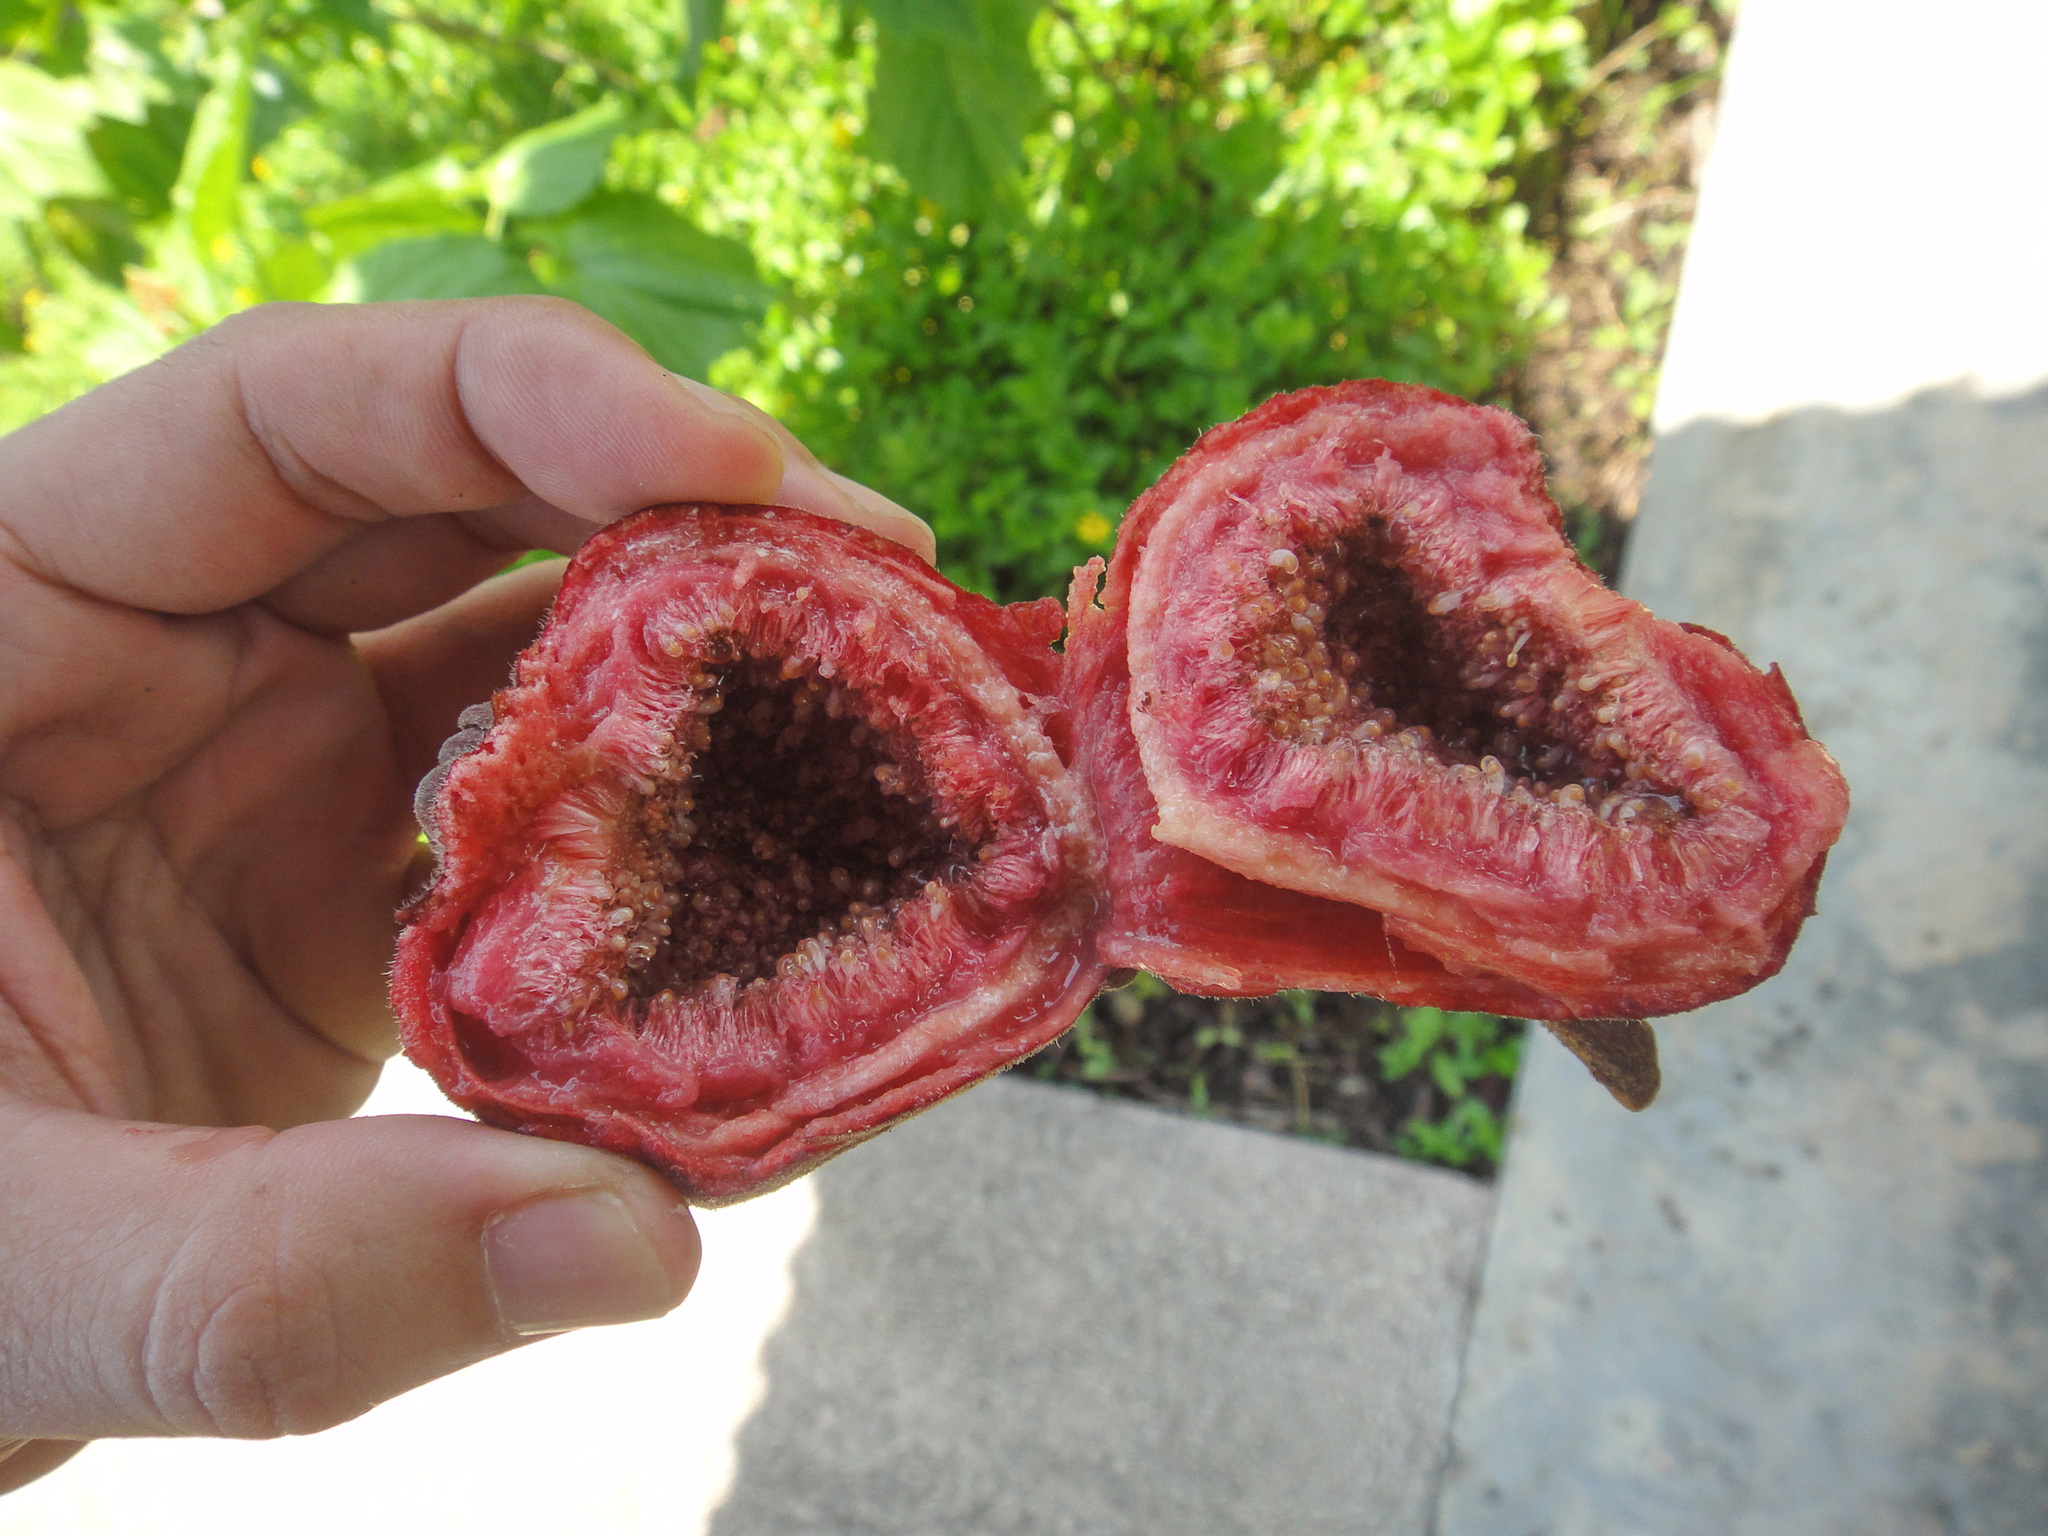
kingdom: Plantae
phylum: Tracheophyta
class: Magnoliopsida
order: Rosales
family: Moraceae
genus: Ficus
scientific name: Ficus auriculata
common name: Roxburgh fig
